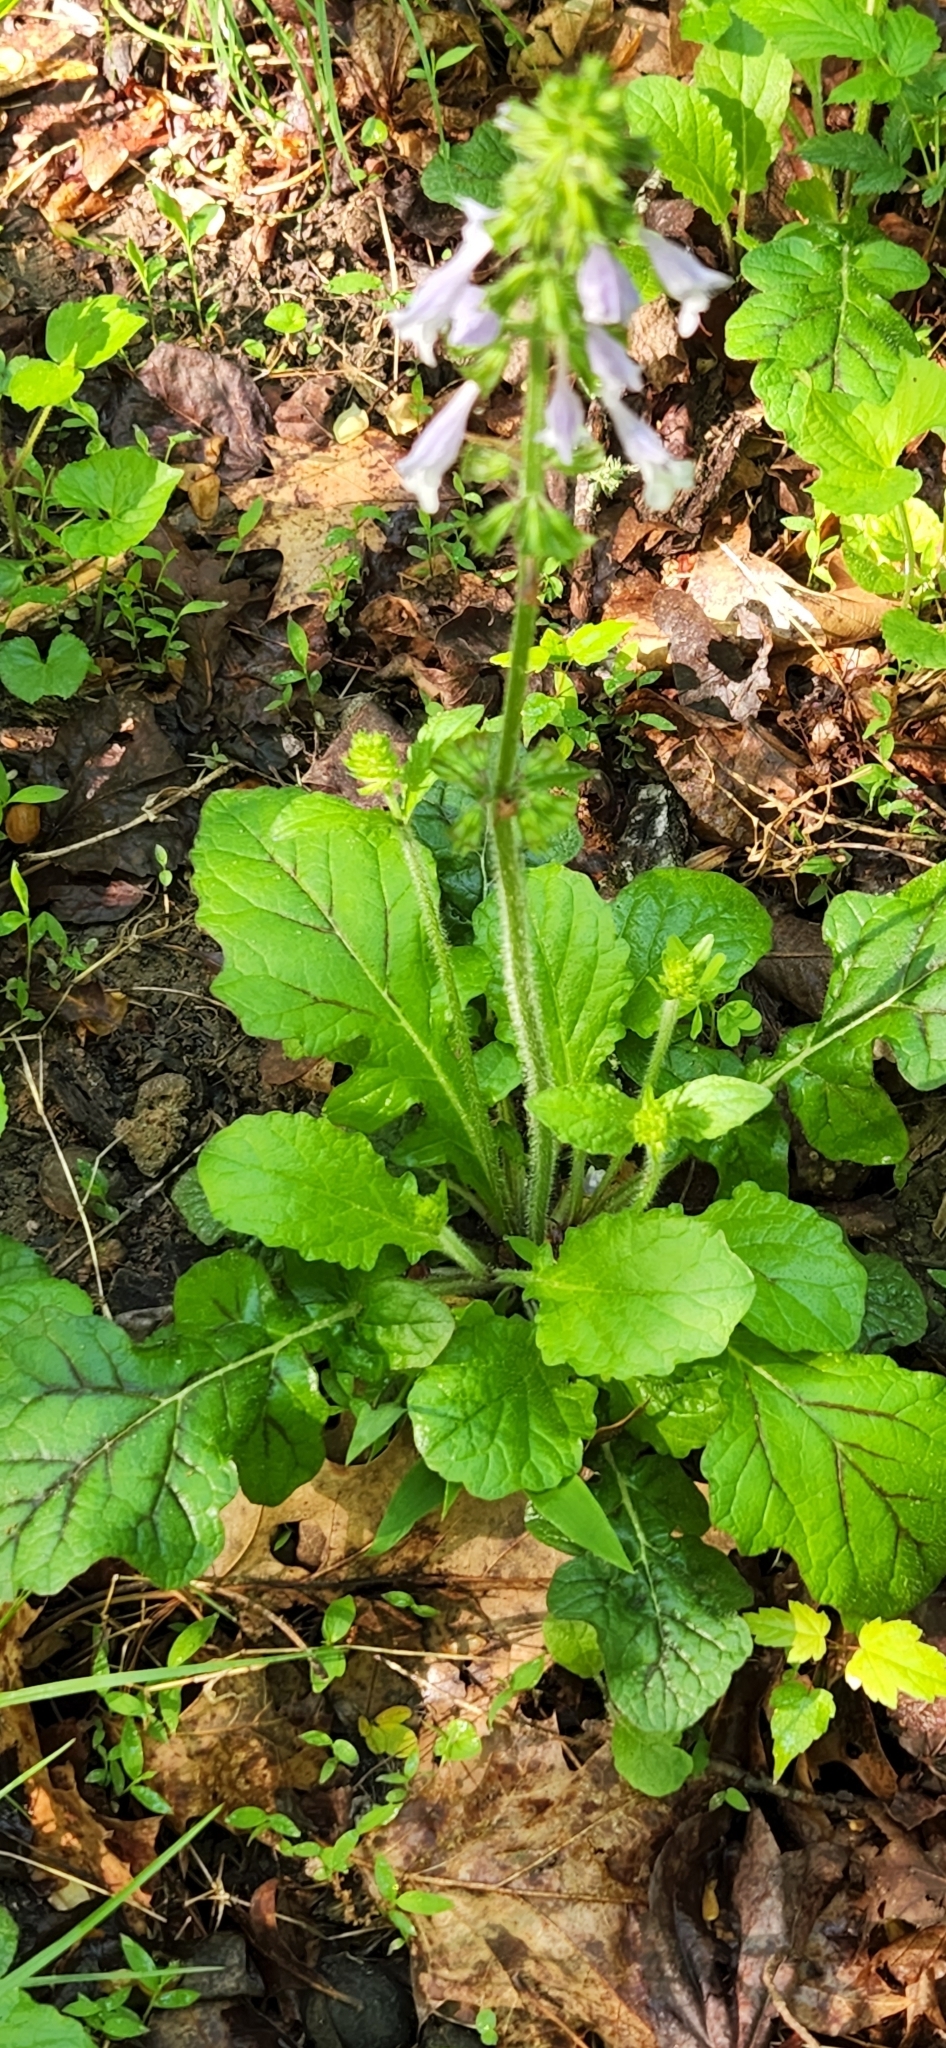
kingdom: Plantae
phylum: Tracheophyta
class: Magnoliopsida
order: Lamiales
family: Lamiaceae
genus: Salvia
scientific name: Salvia lyrata
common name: Cancerweed
